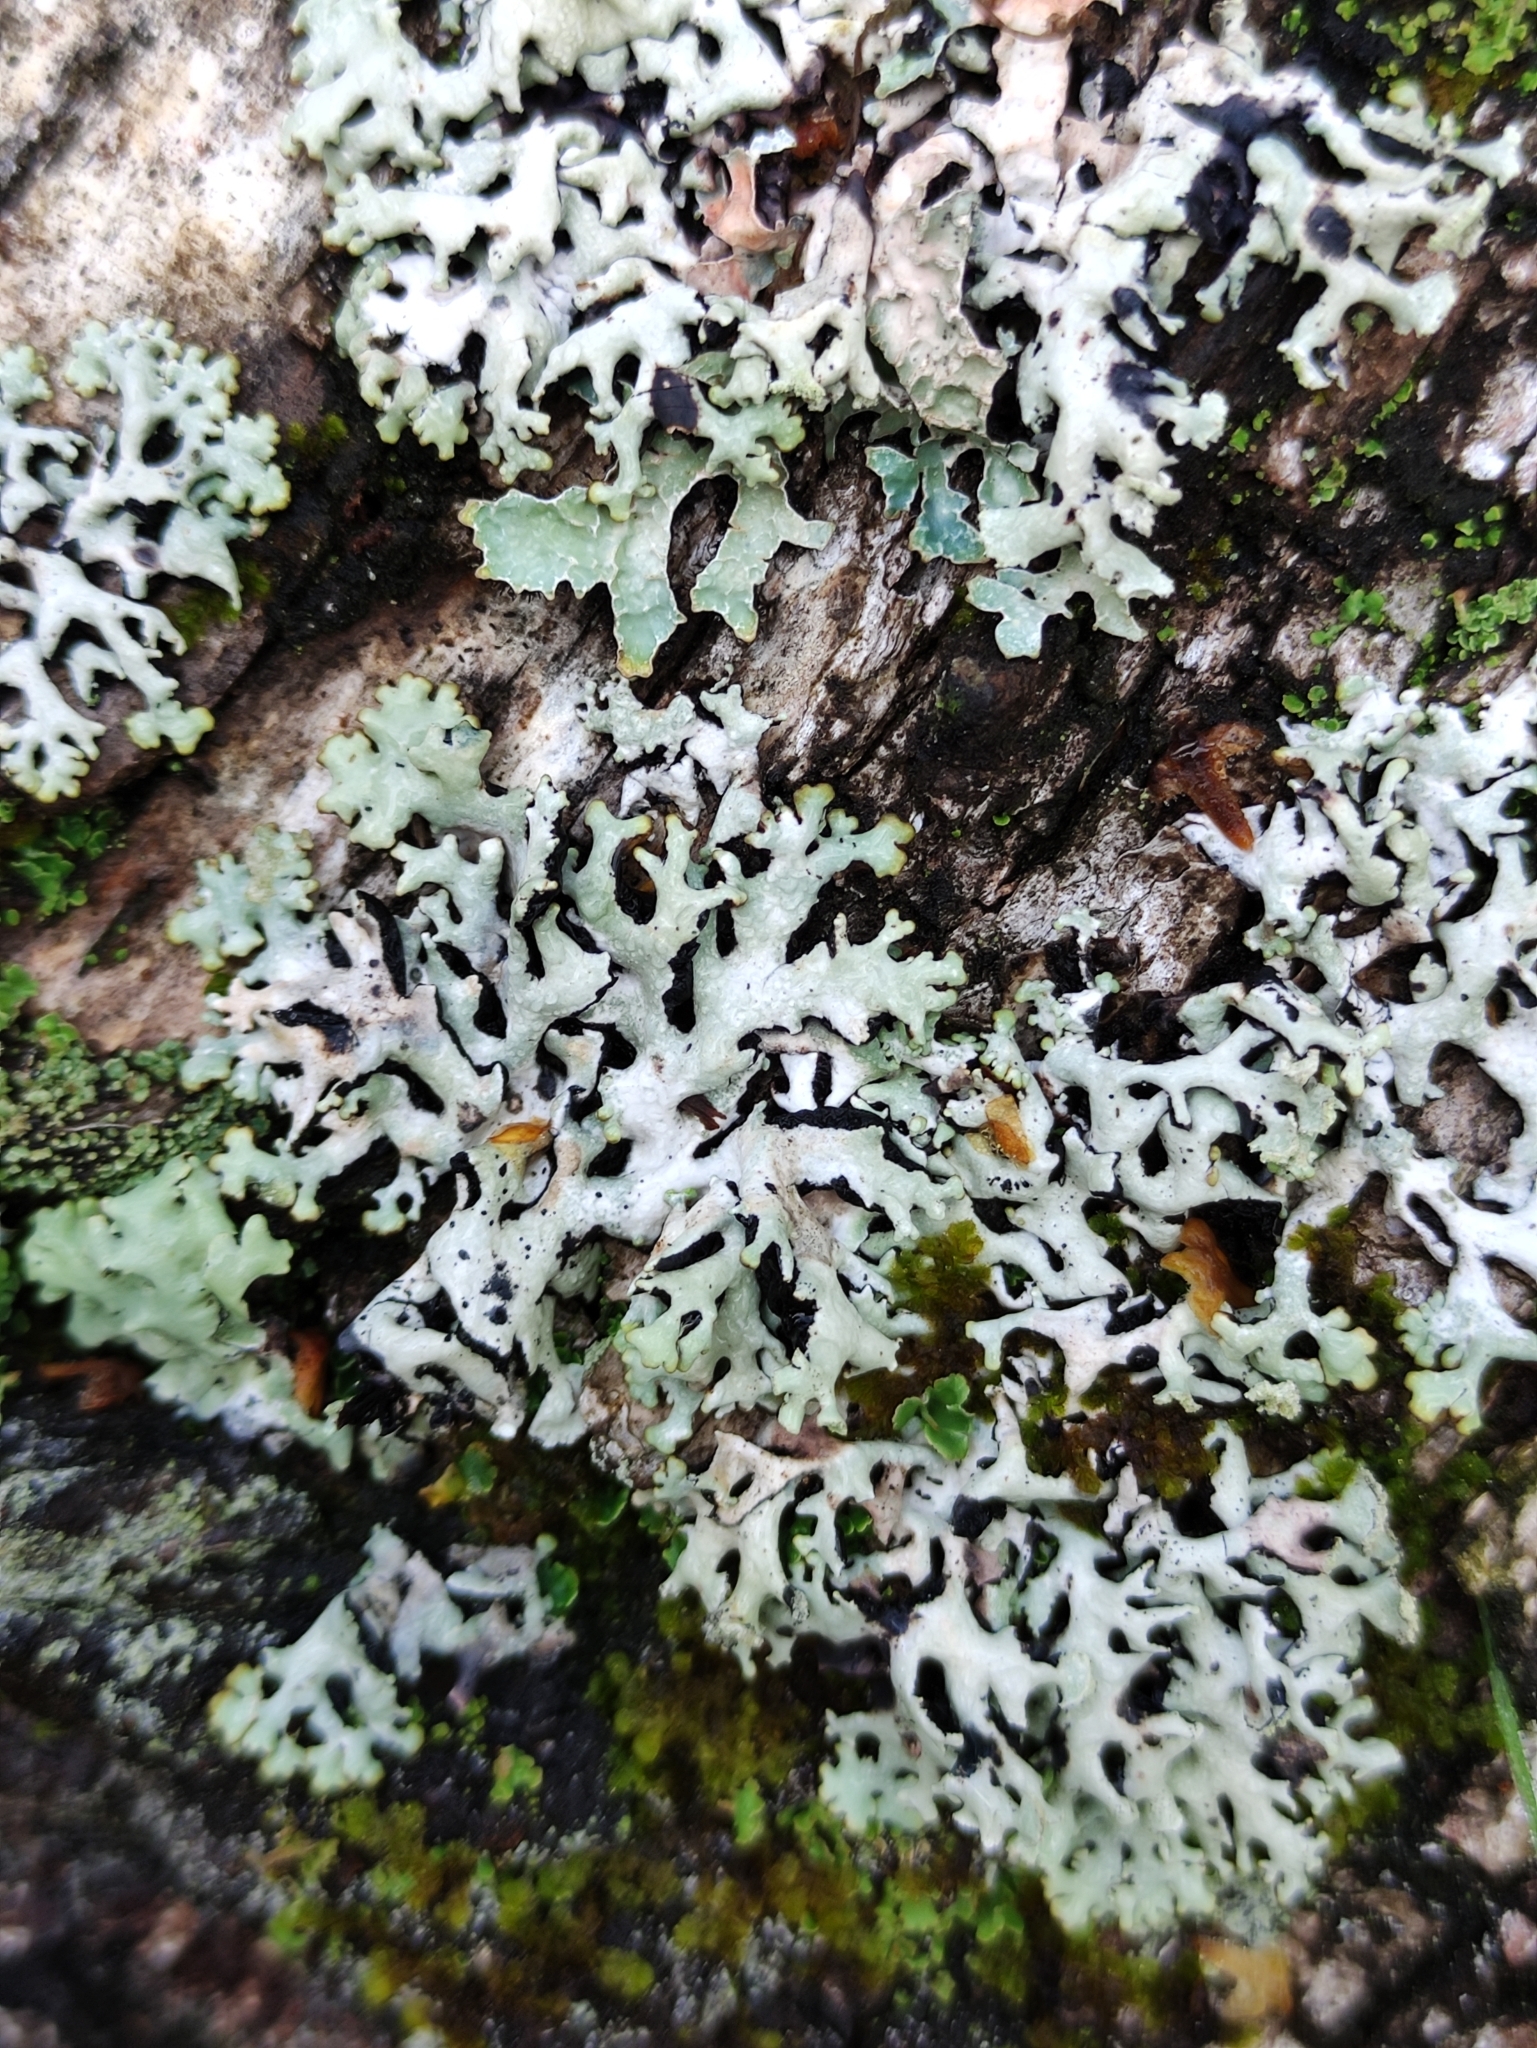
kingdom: Fungi
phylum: Ascomycota
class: Lecanoromycetes
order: Lecanorales
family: Parmeliaceae
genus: Hypogymnia
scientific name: Hypogymnia physodes
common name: Dark crottle
